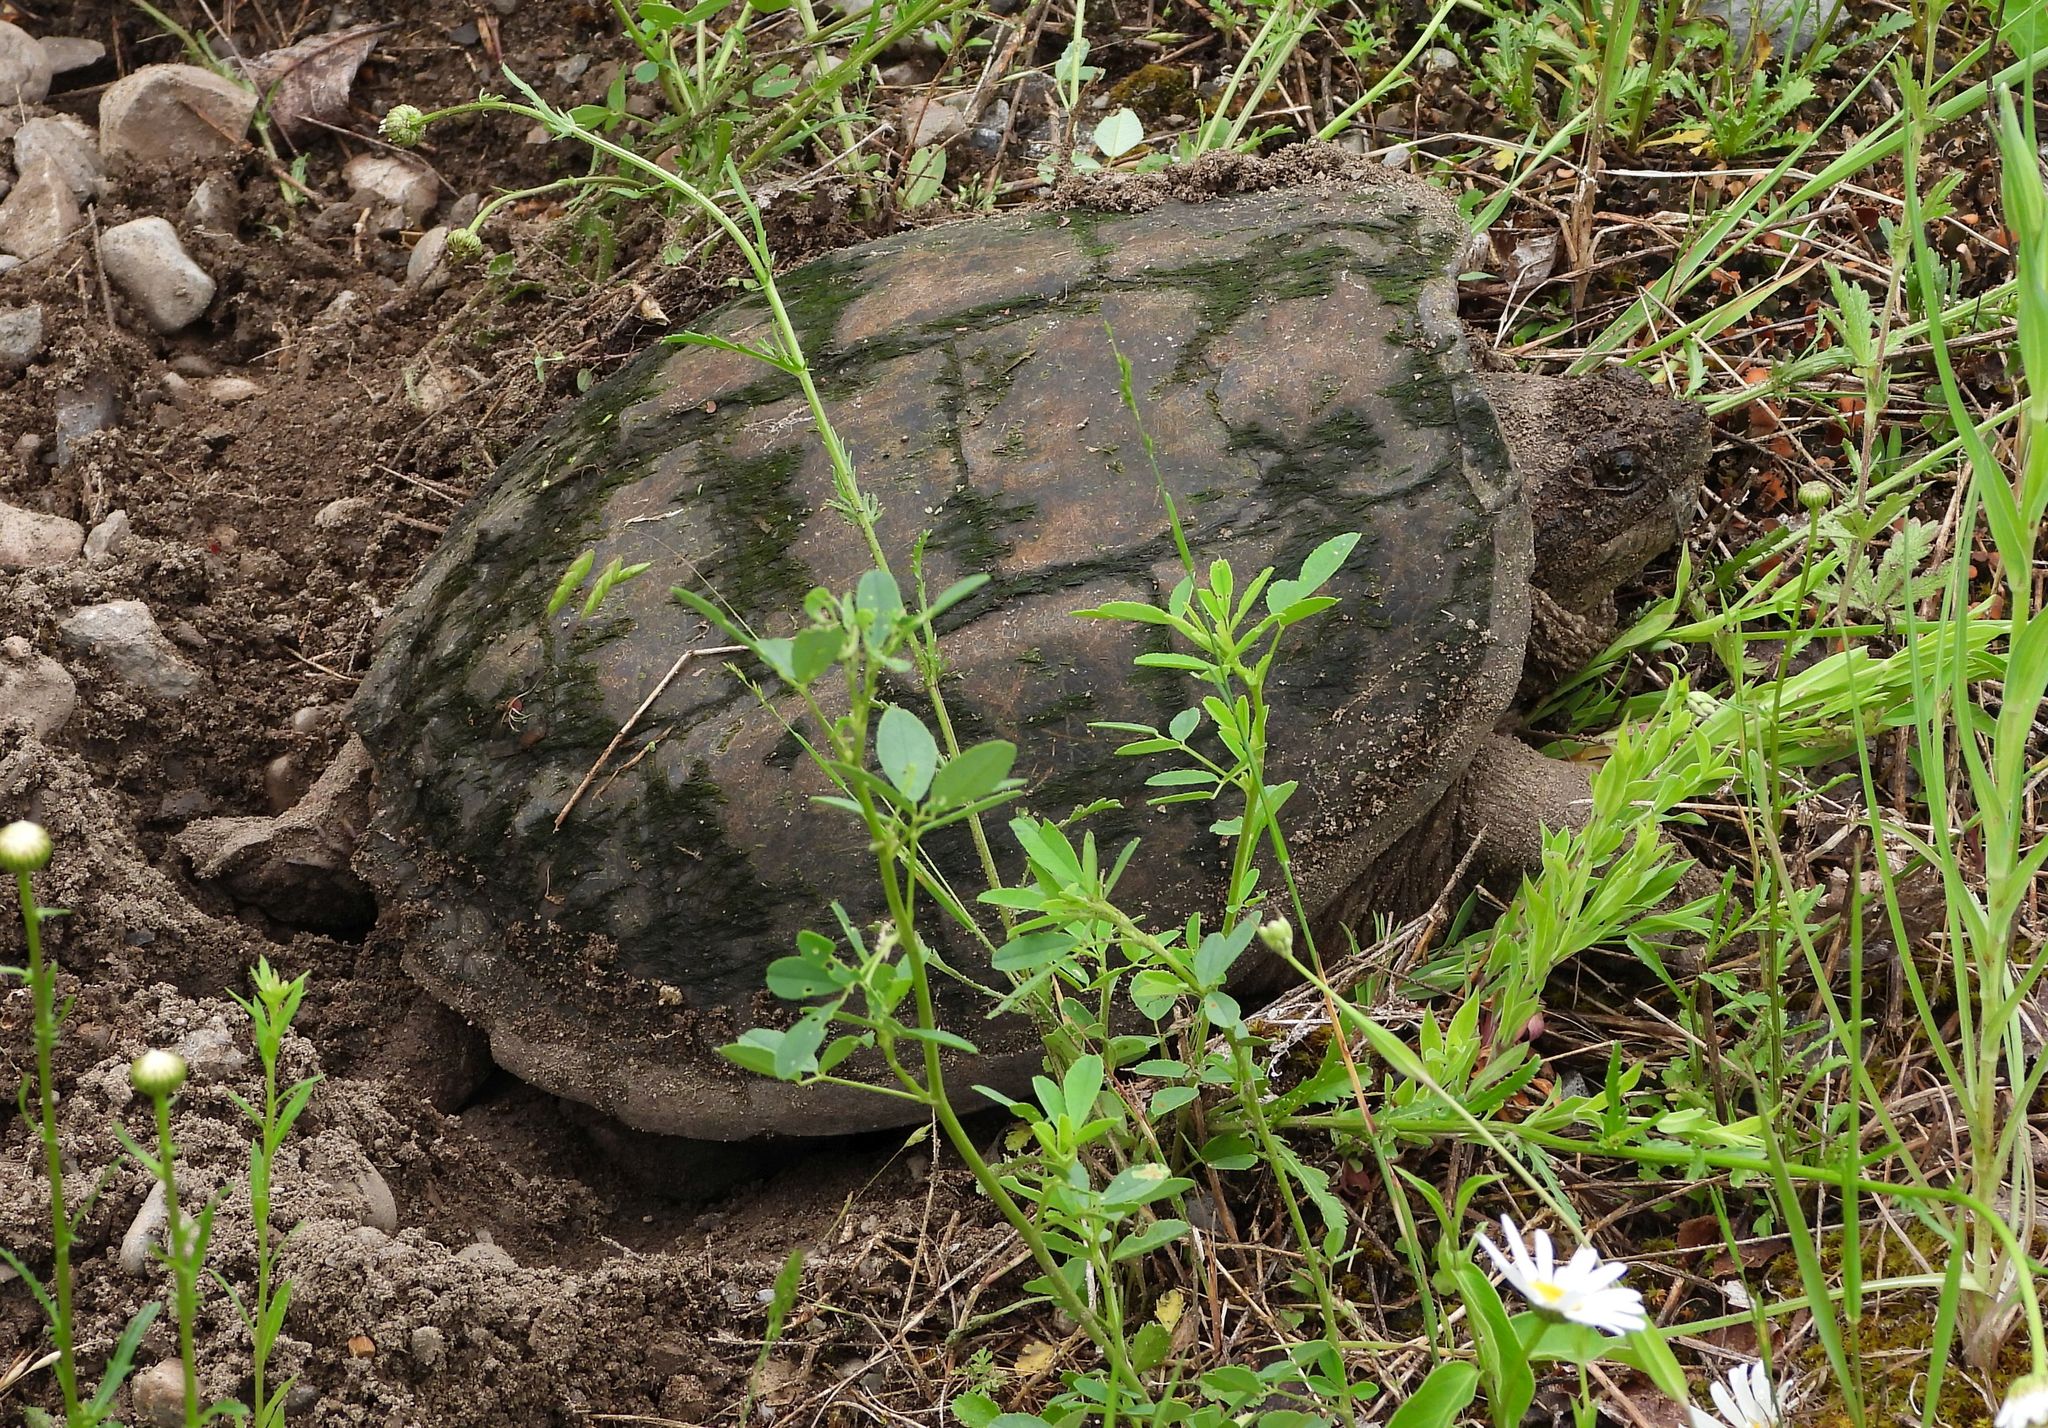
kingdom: Animalia
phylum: Chordata
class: Testudines
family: Chelydridae
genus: Chelydra
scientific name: Chelydra serpentina
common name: Common snapping turtle
